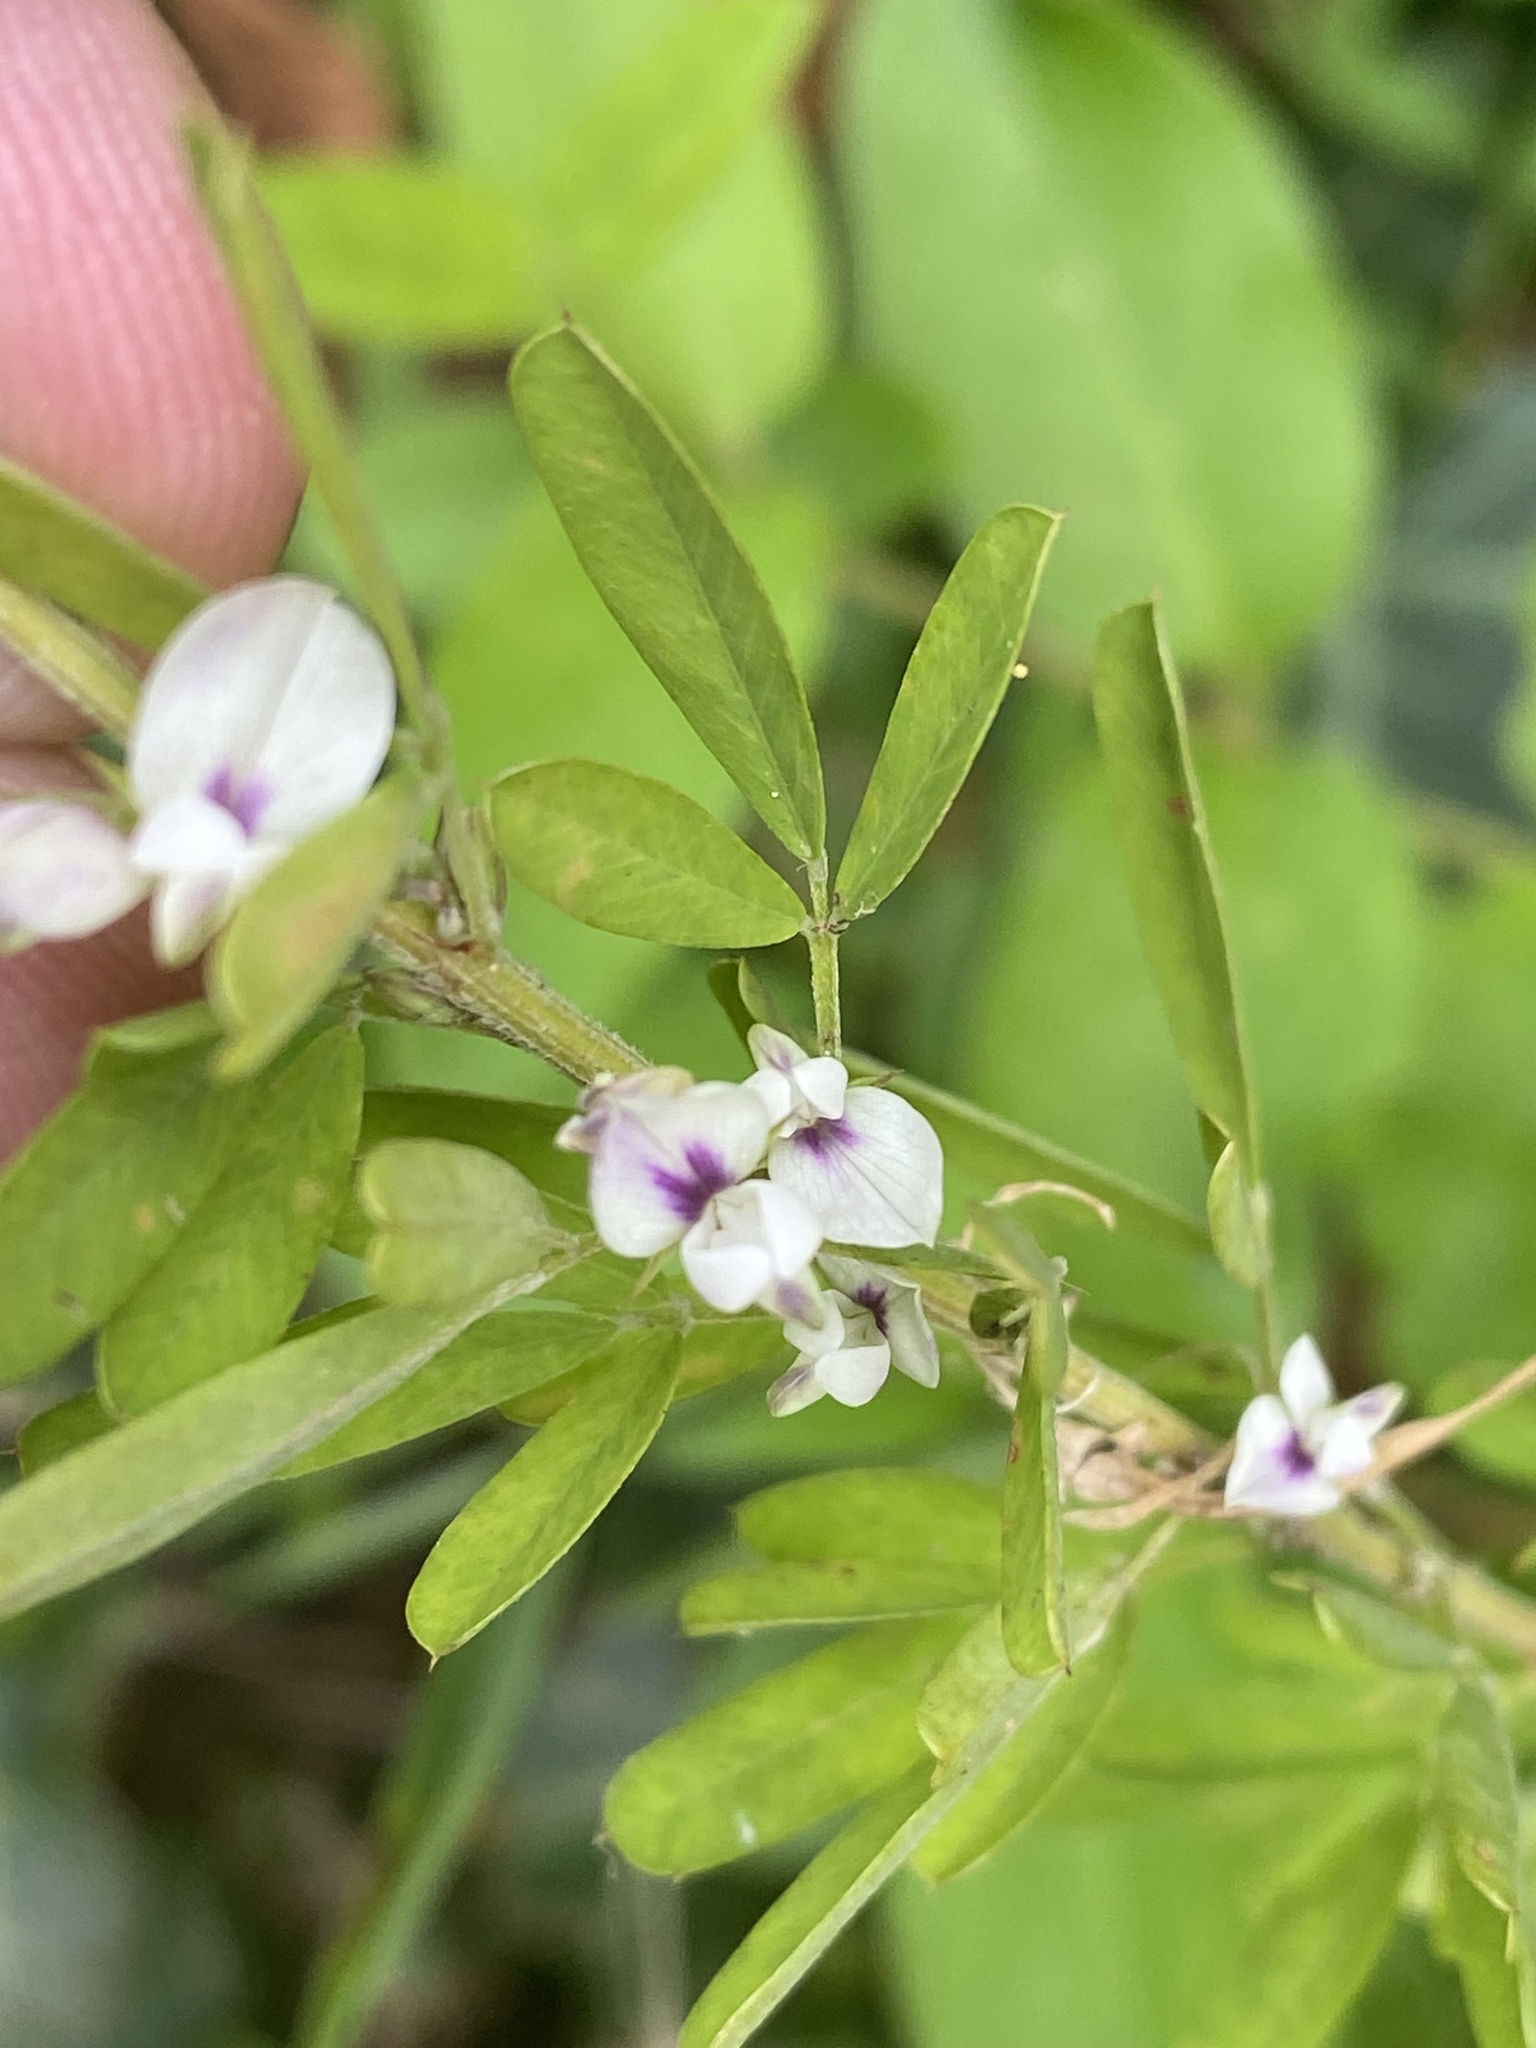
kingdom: Plantae
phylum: Tracheophyta
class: Magnoliopsida
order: Fabales
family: Fabaceae
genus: Lespedeza
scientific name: Lespedeza cuneata
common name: Chinese bush-clover
